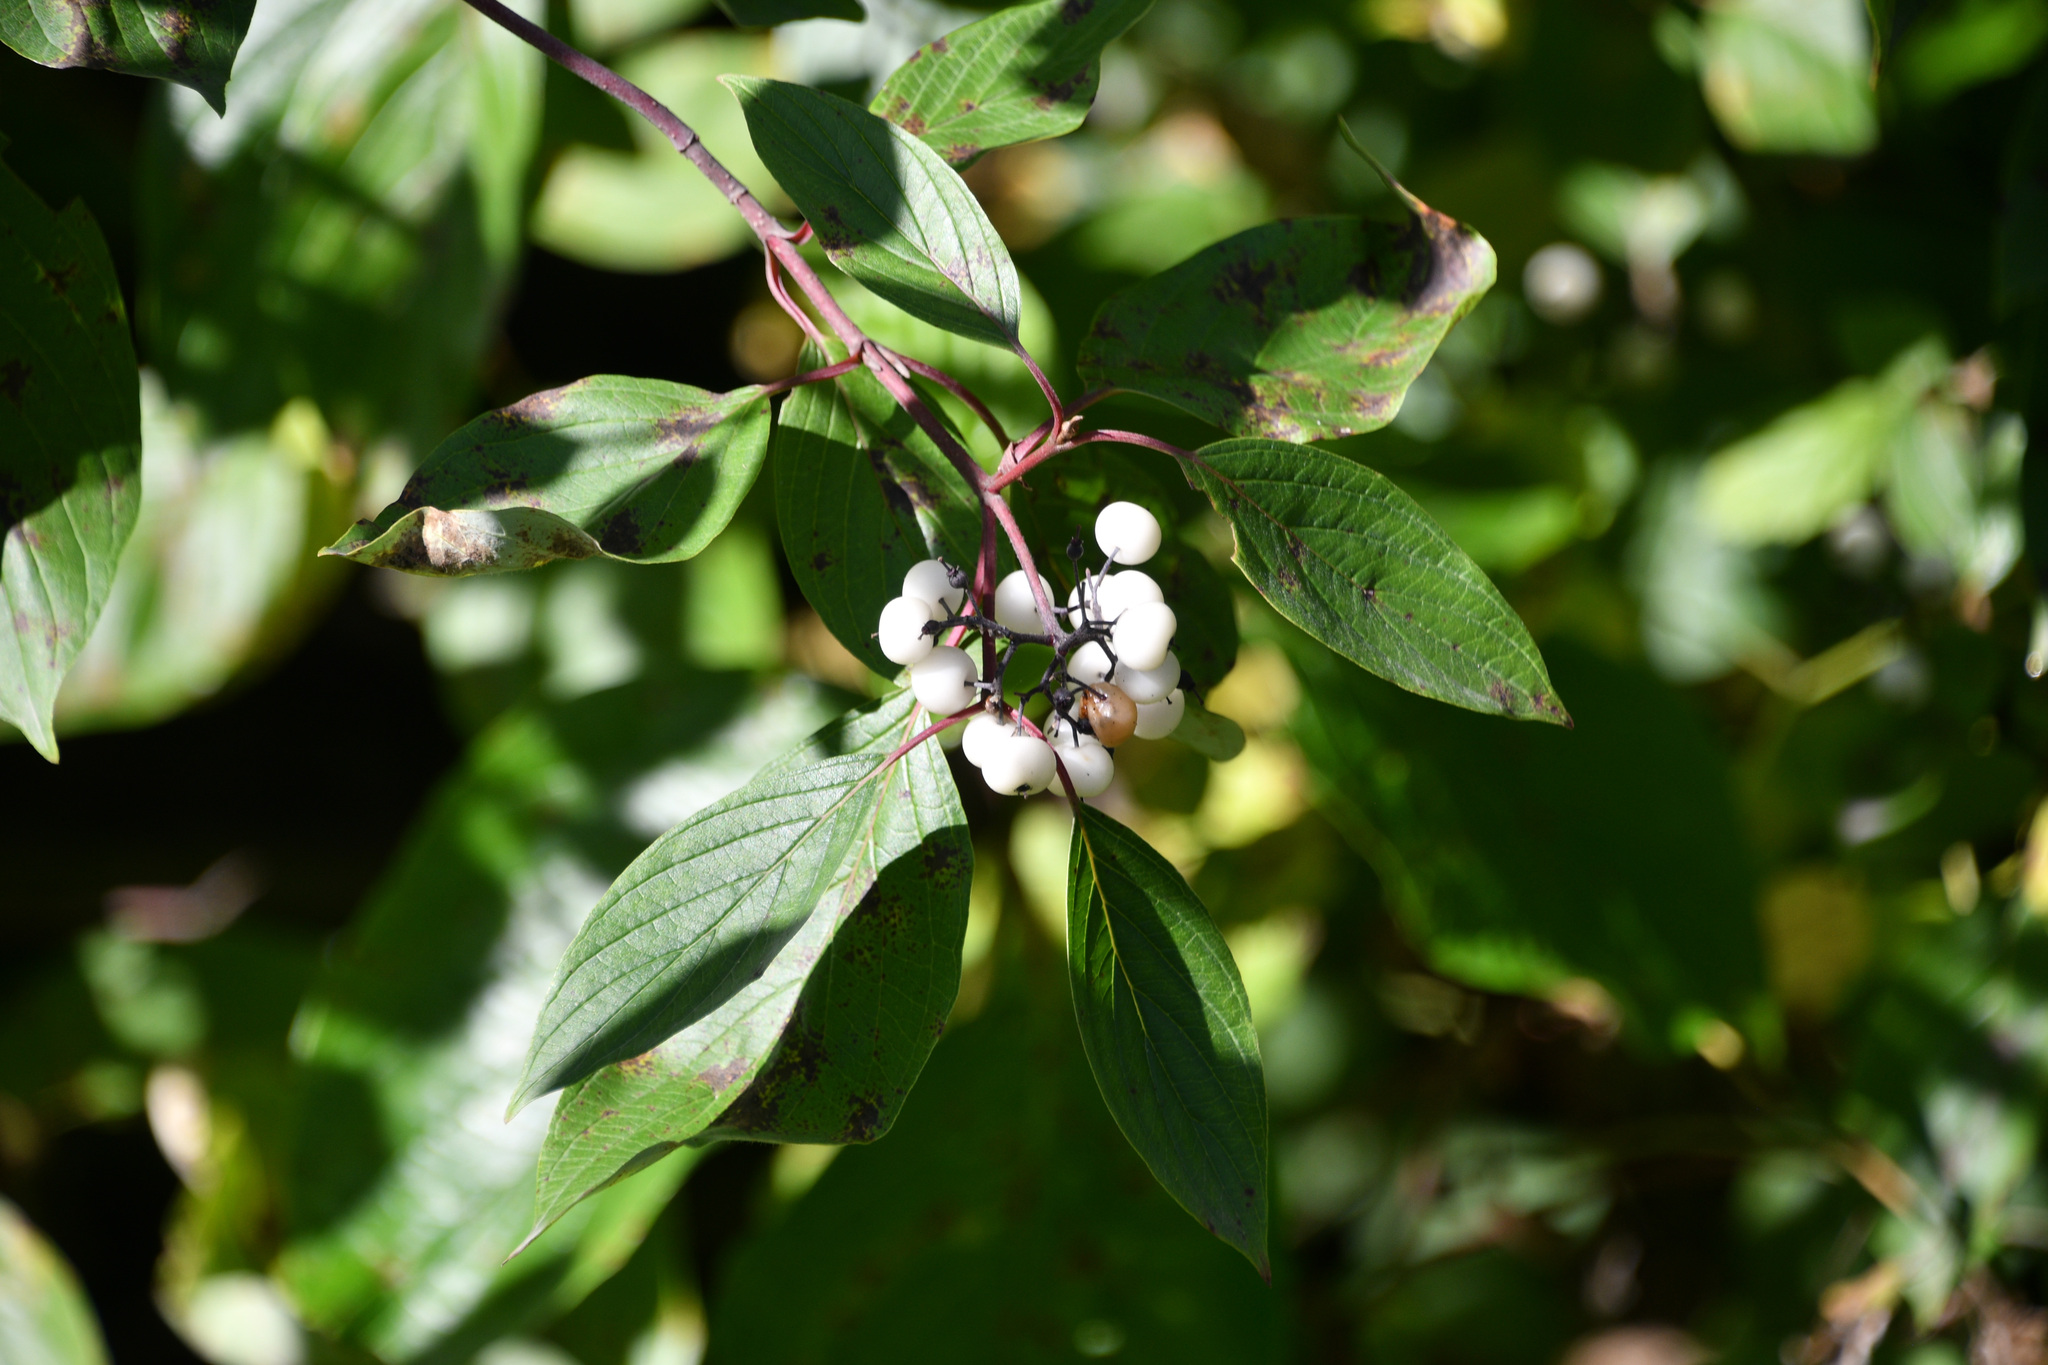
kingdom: Plantae
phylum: Tracheophyta
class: Magnoliopsida
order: Cornales
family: Cornaceae
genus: Cornus
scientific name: Cornus sericea
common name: Red-osier dogwood
